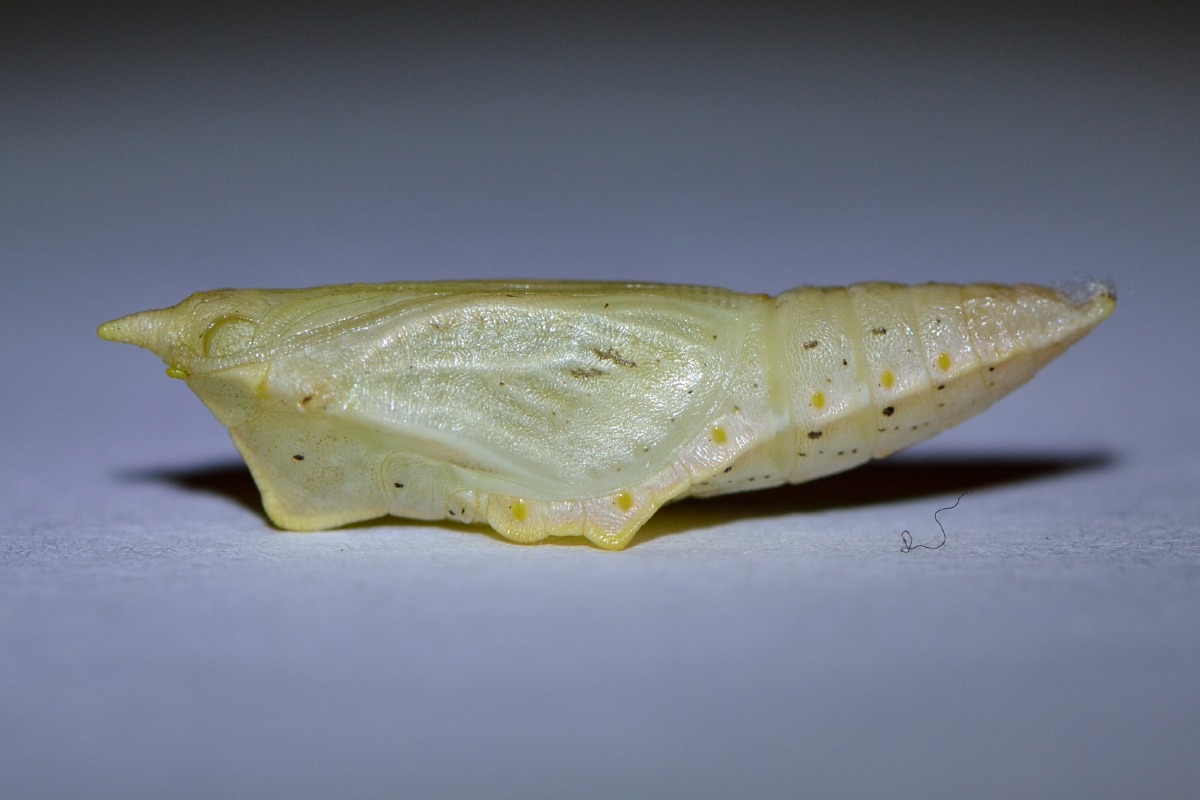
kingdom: Animalia
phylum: Arthropoda
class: Insecta
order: Lepidoptera
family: Pieridae
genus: Pieris
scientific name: Pieris napi
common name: Green-veined white
